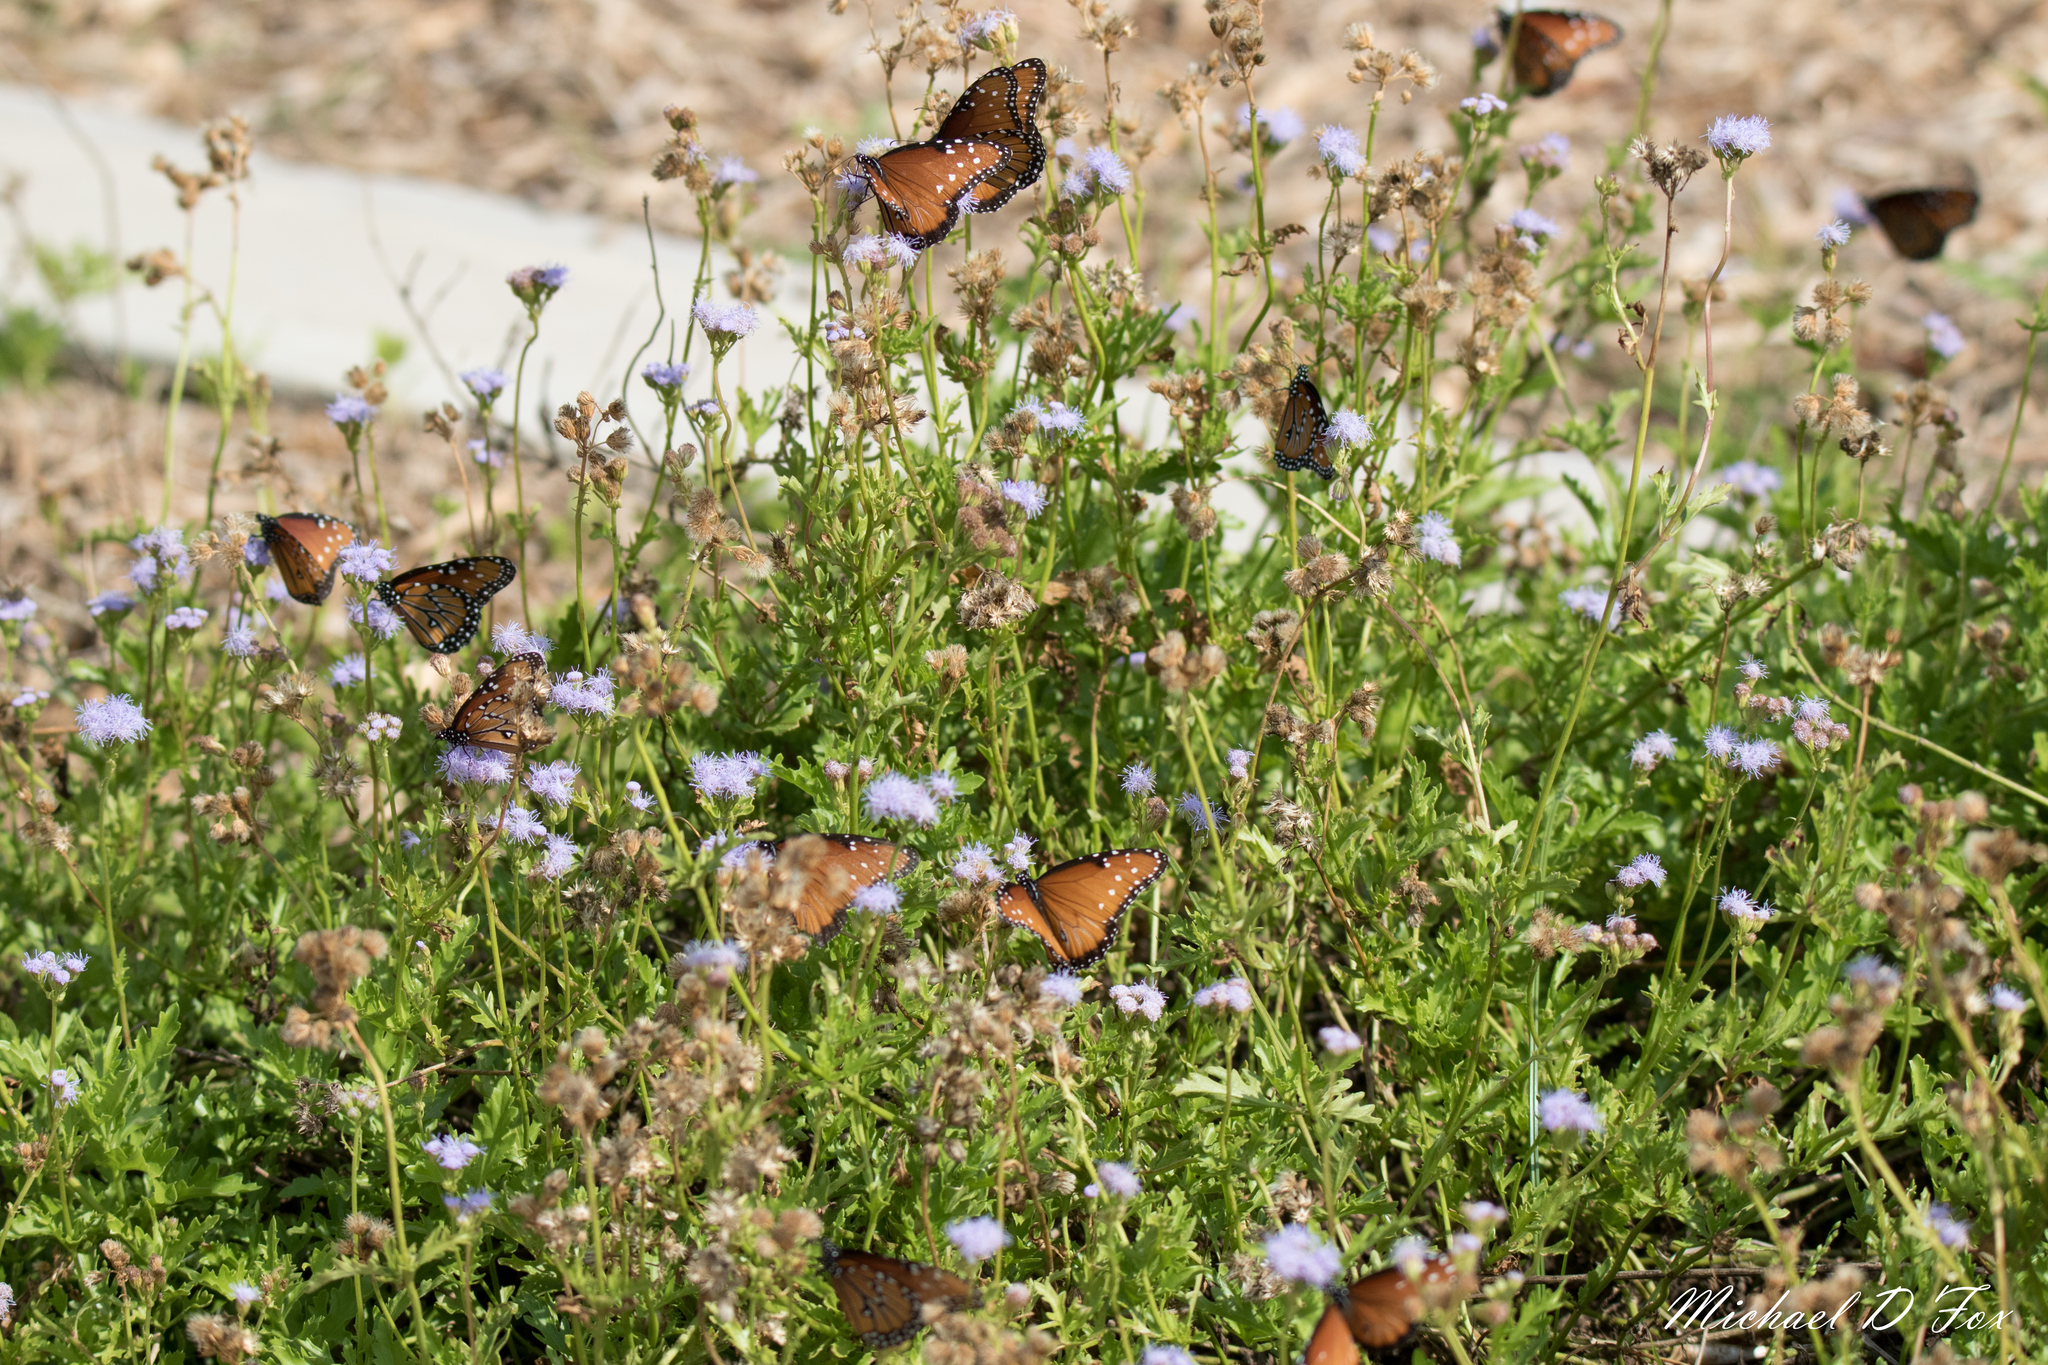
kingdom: Animalia
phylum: Arthropoda
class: Insecta
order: Lepidoptera
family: Nymphalidae
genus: Danaus
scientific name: Danaus gilippus
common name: Queen
